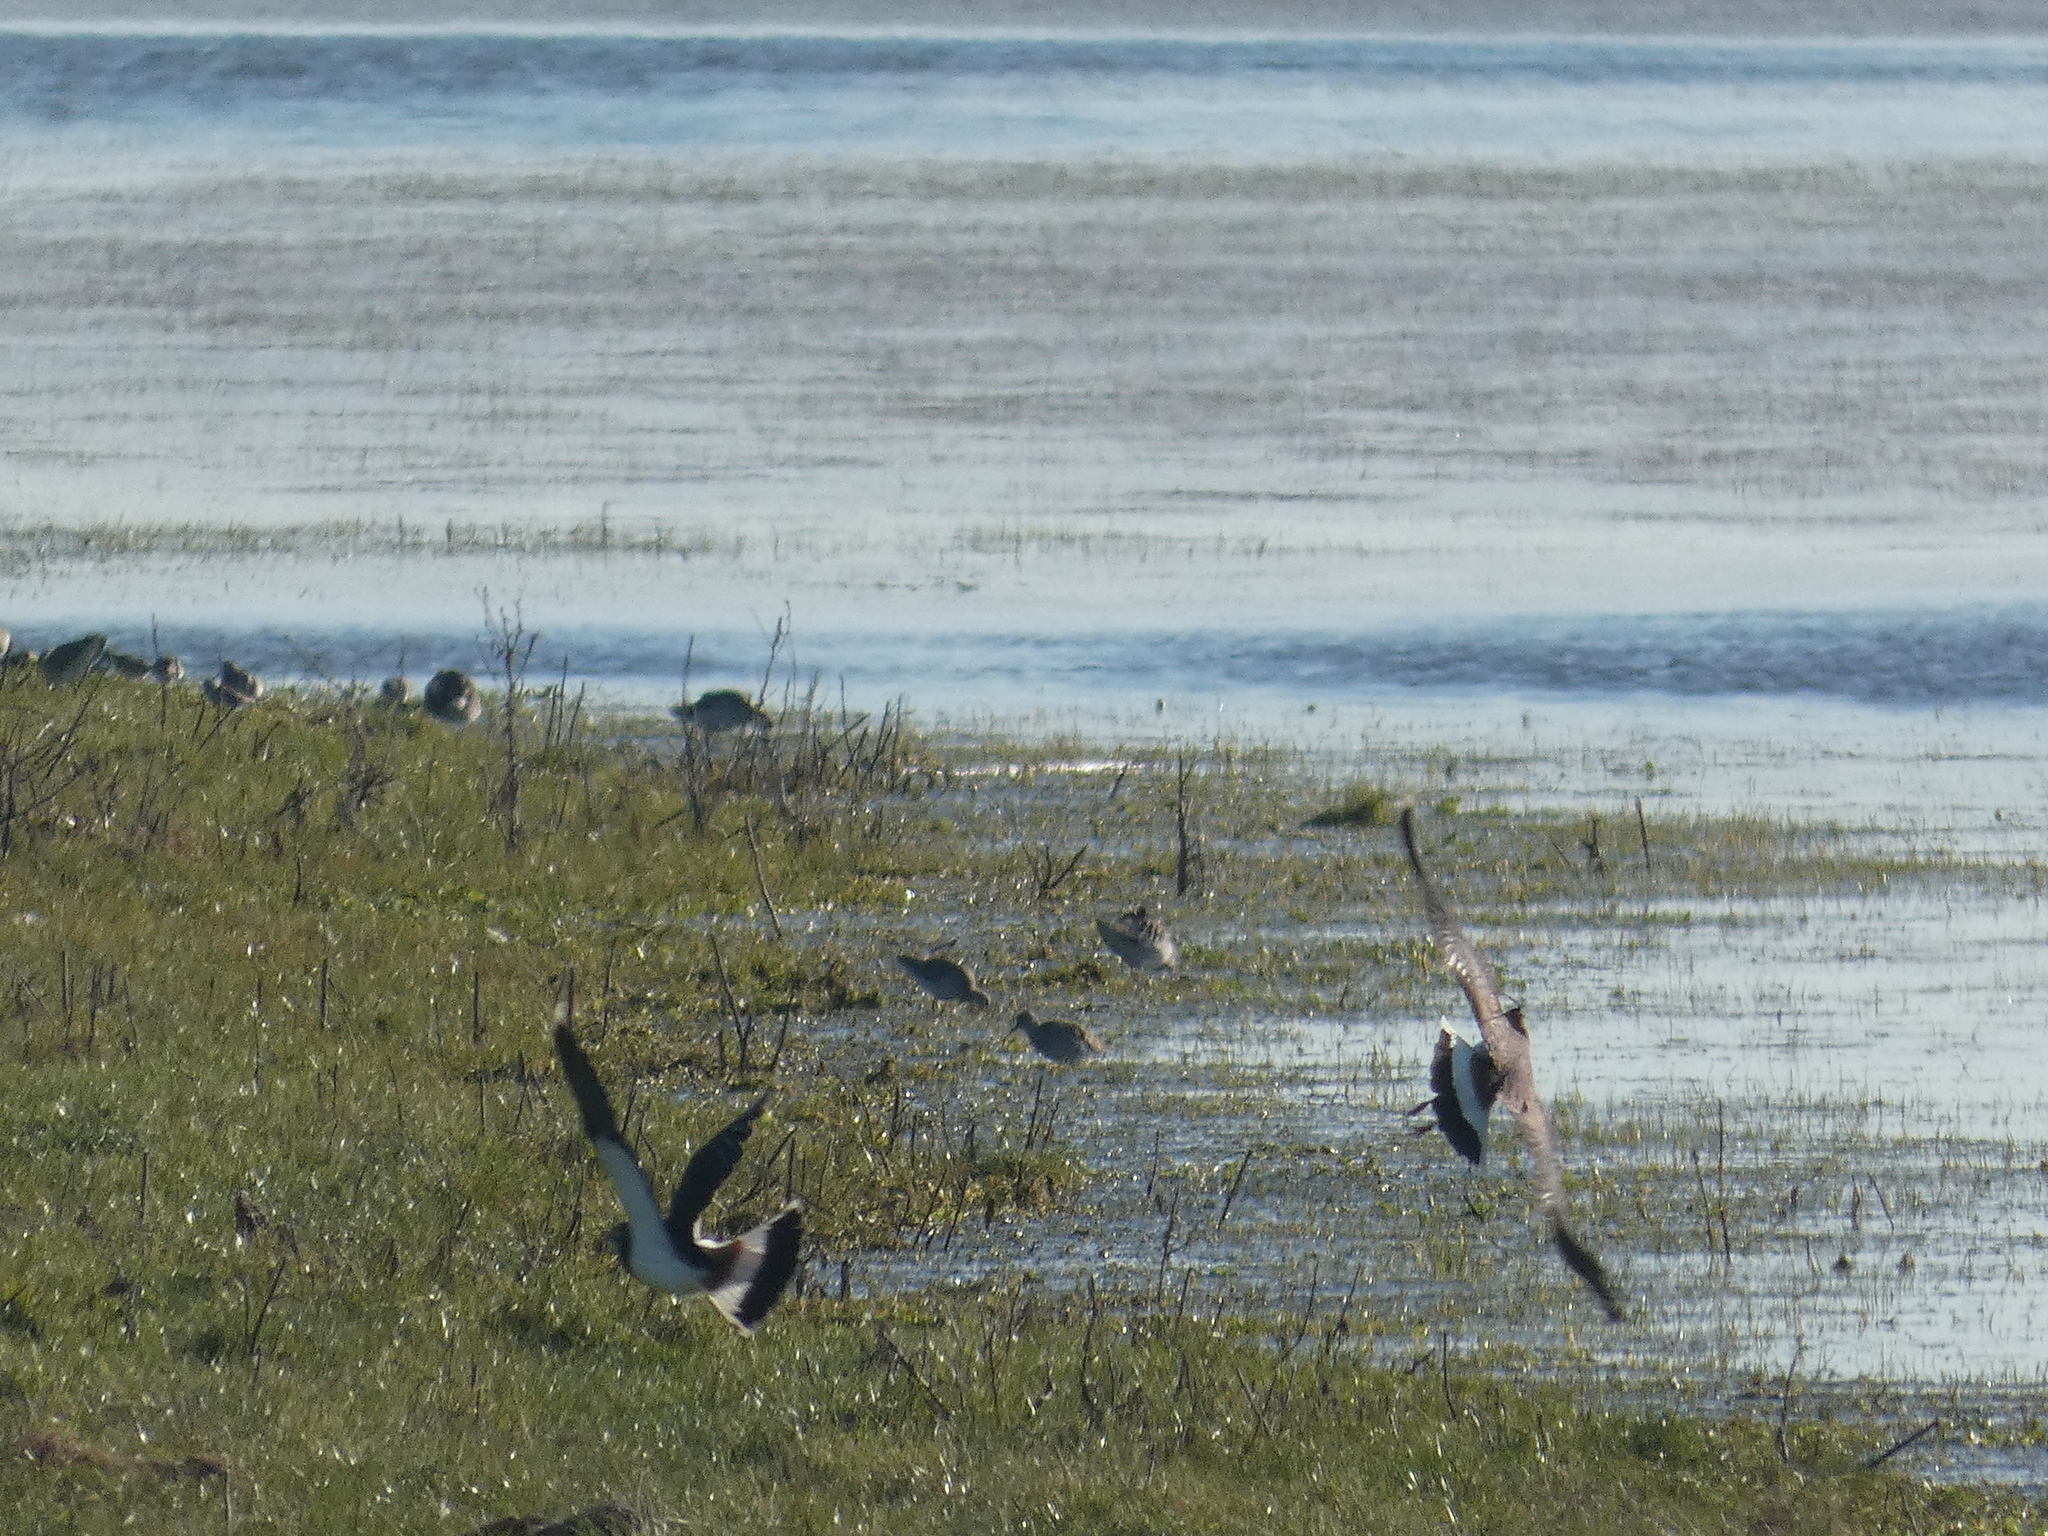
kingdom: Animalia
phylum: Chordata
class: Aves
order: Charadriiformes
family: Scolopacidae
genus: Calidris
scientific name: Calidris pugnax
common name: Ruff
